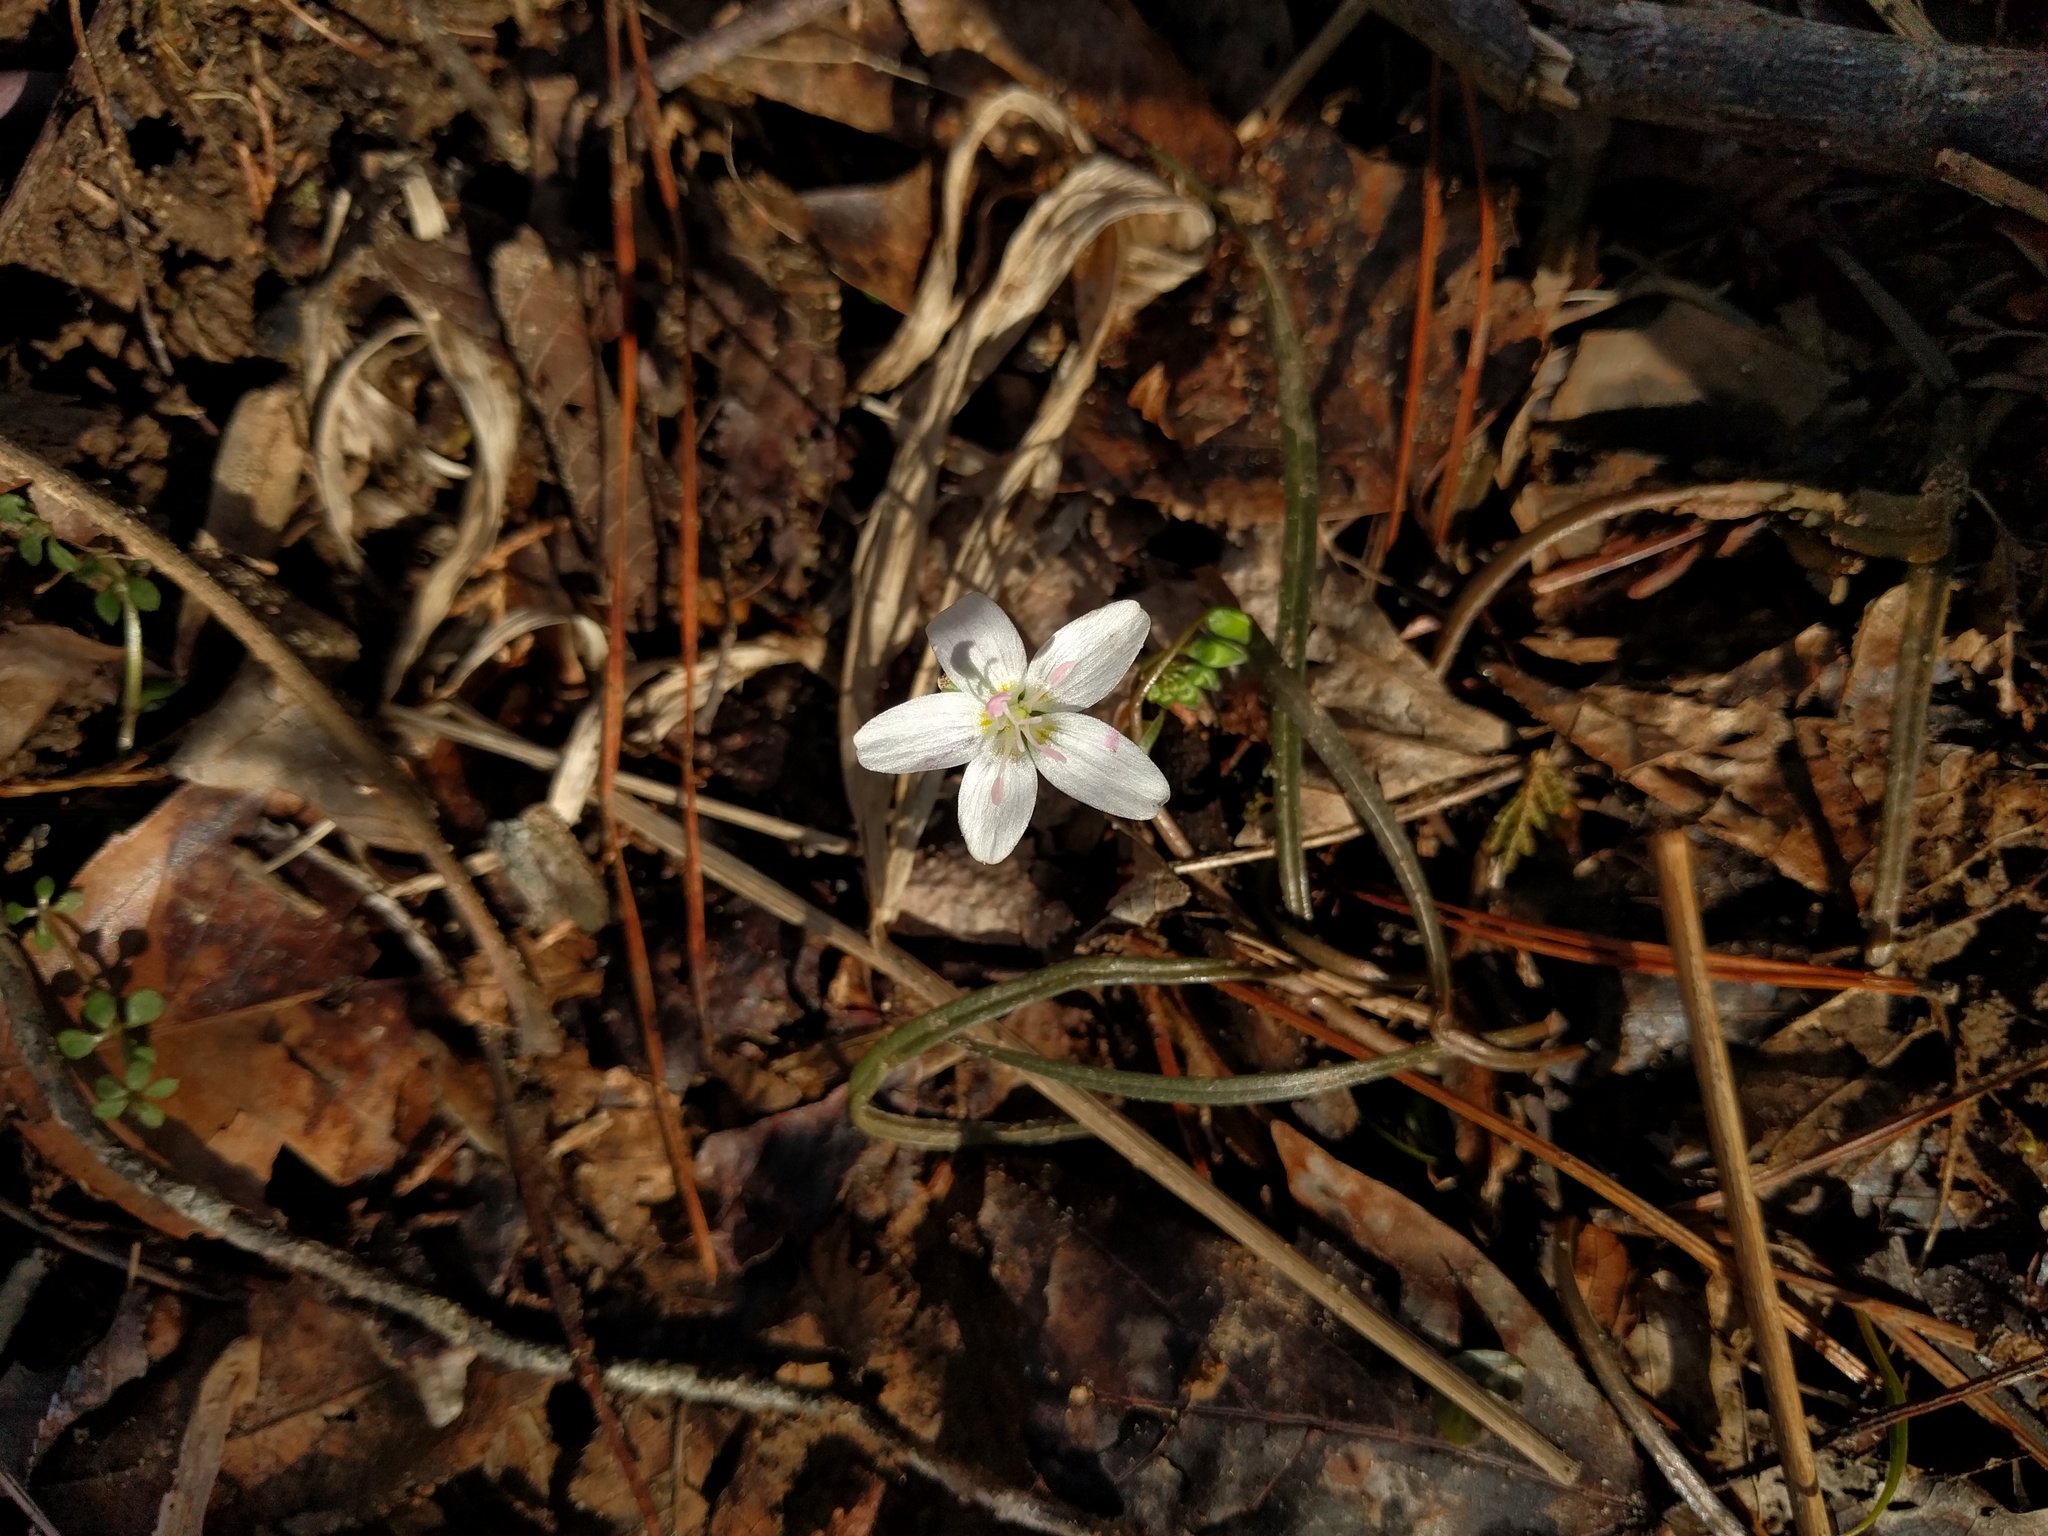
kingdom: Plantae
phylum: Tracheophyta
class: Magnoliopsida
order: Caryophyllales
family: Montiaceae
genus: Claytonia
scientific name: Claytonia virginica
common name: Virginia springbeauty
